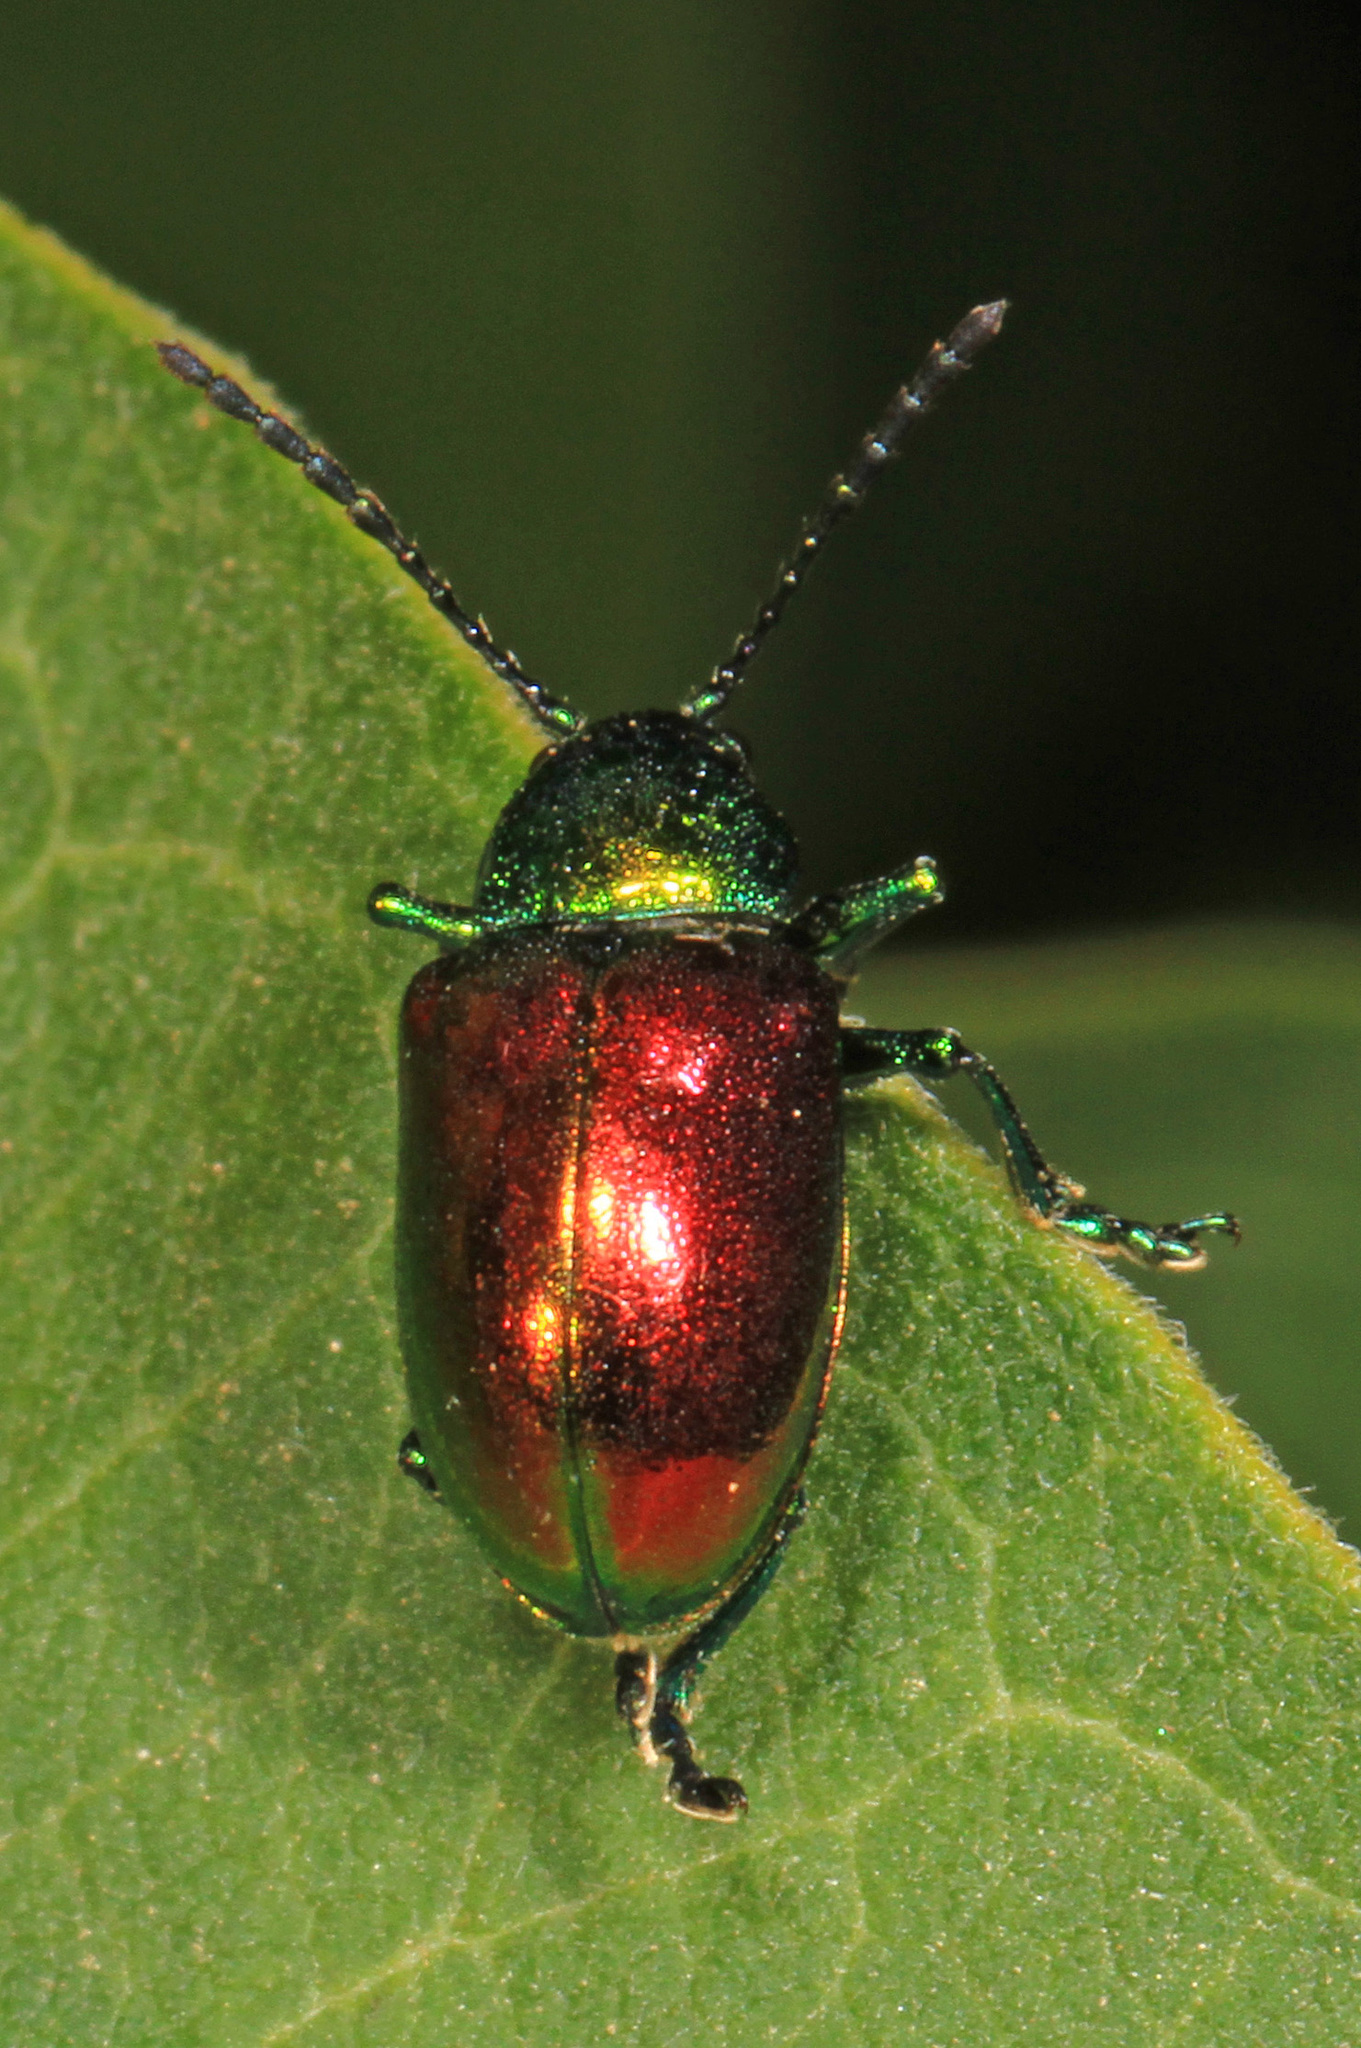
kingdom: Animalia
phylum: Arthropoda
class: Insecta
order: Coleoptera
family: Chrysomelidae
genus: Chrysochus
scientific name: Chrysochus auratus
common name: Dogbane leaf beetle
